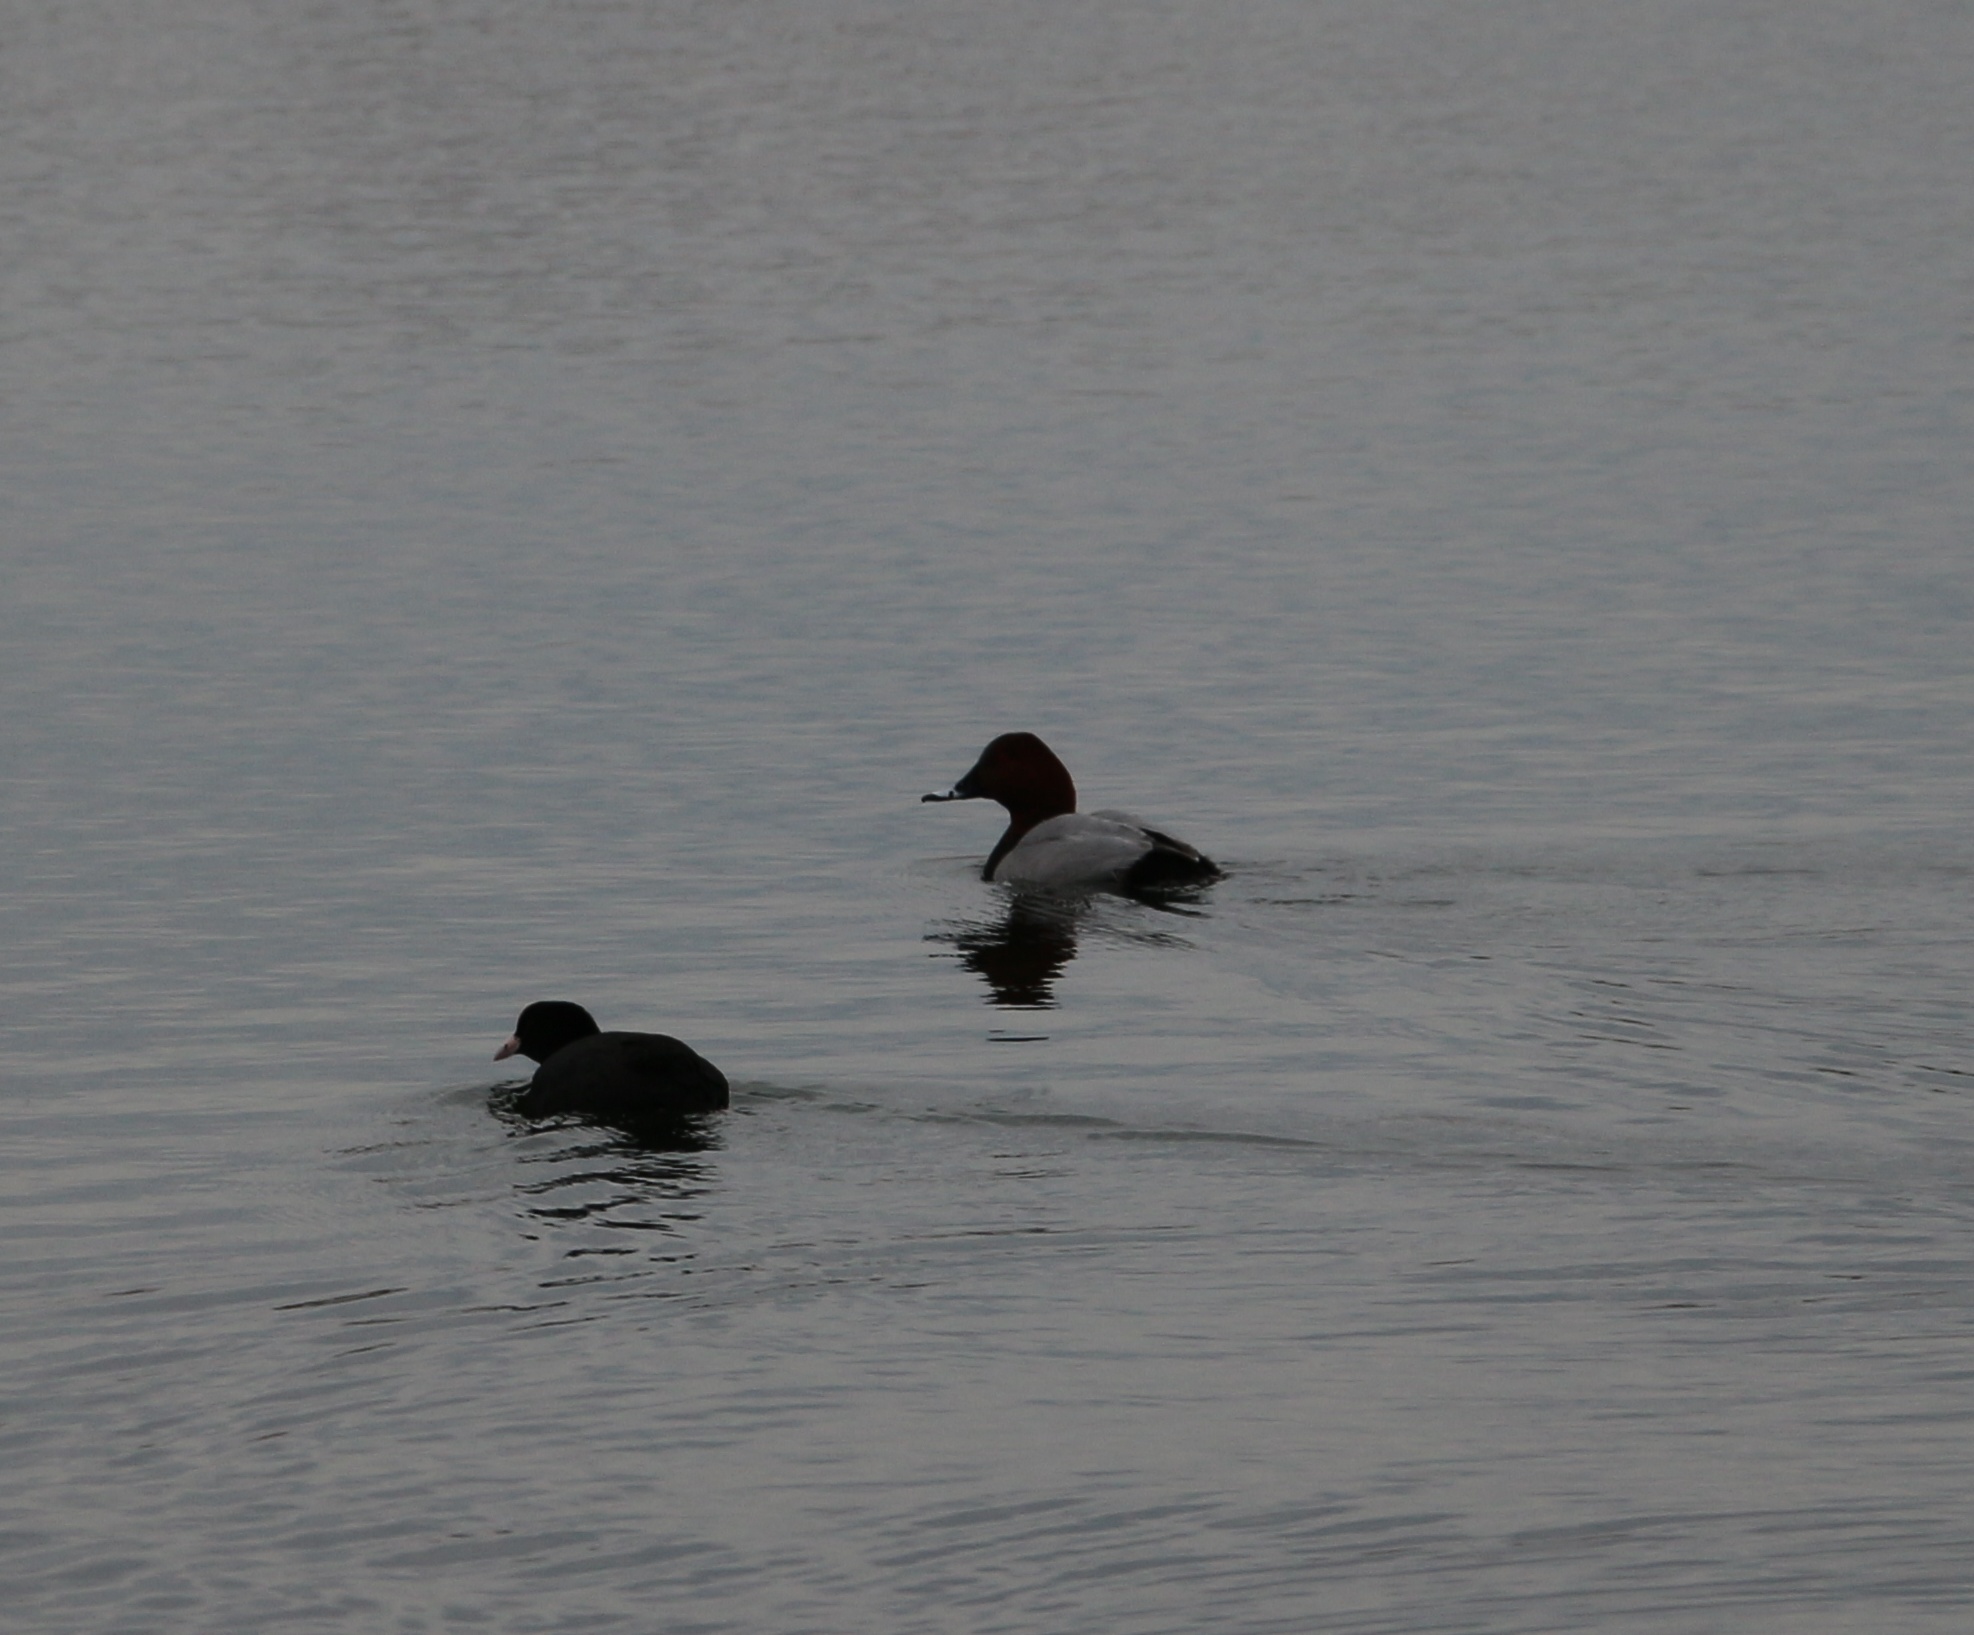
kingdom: Animalia
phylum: Chordata
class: Aves
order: Anseriformes
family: Anatidae
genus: Aythya
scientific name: Aythya ferina
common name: Common pochard
